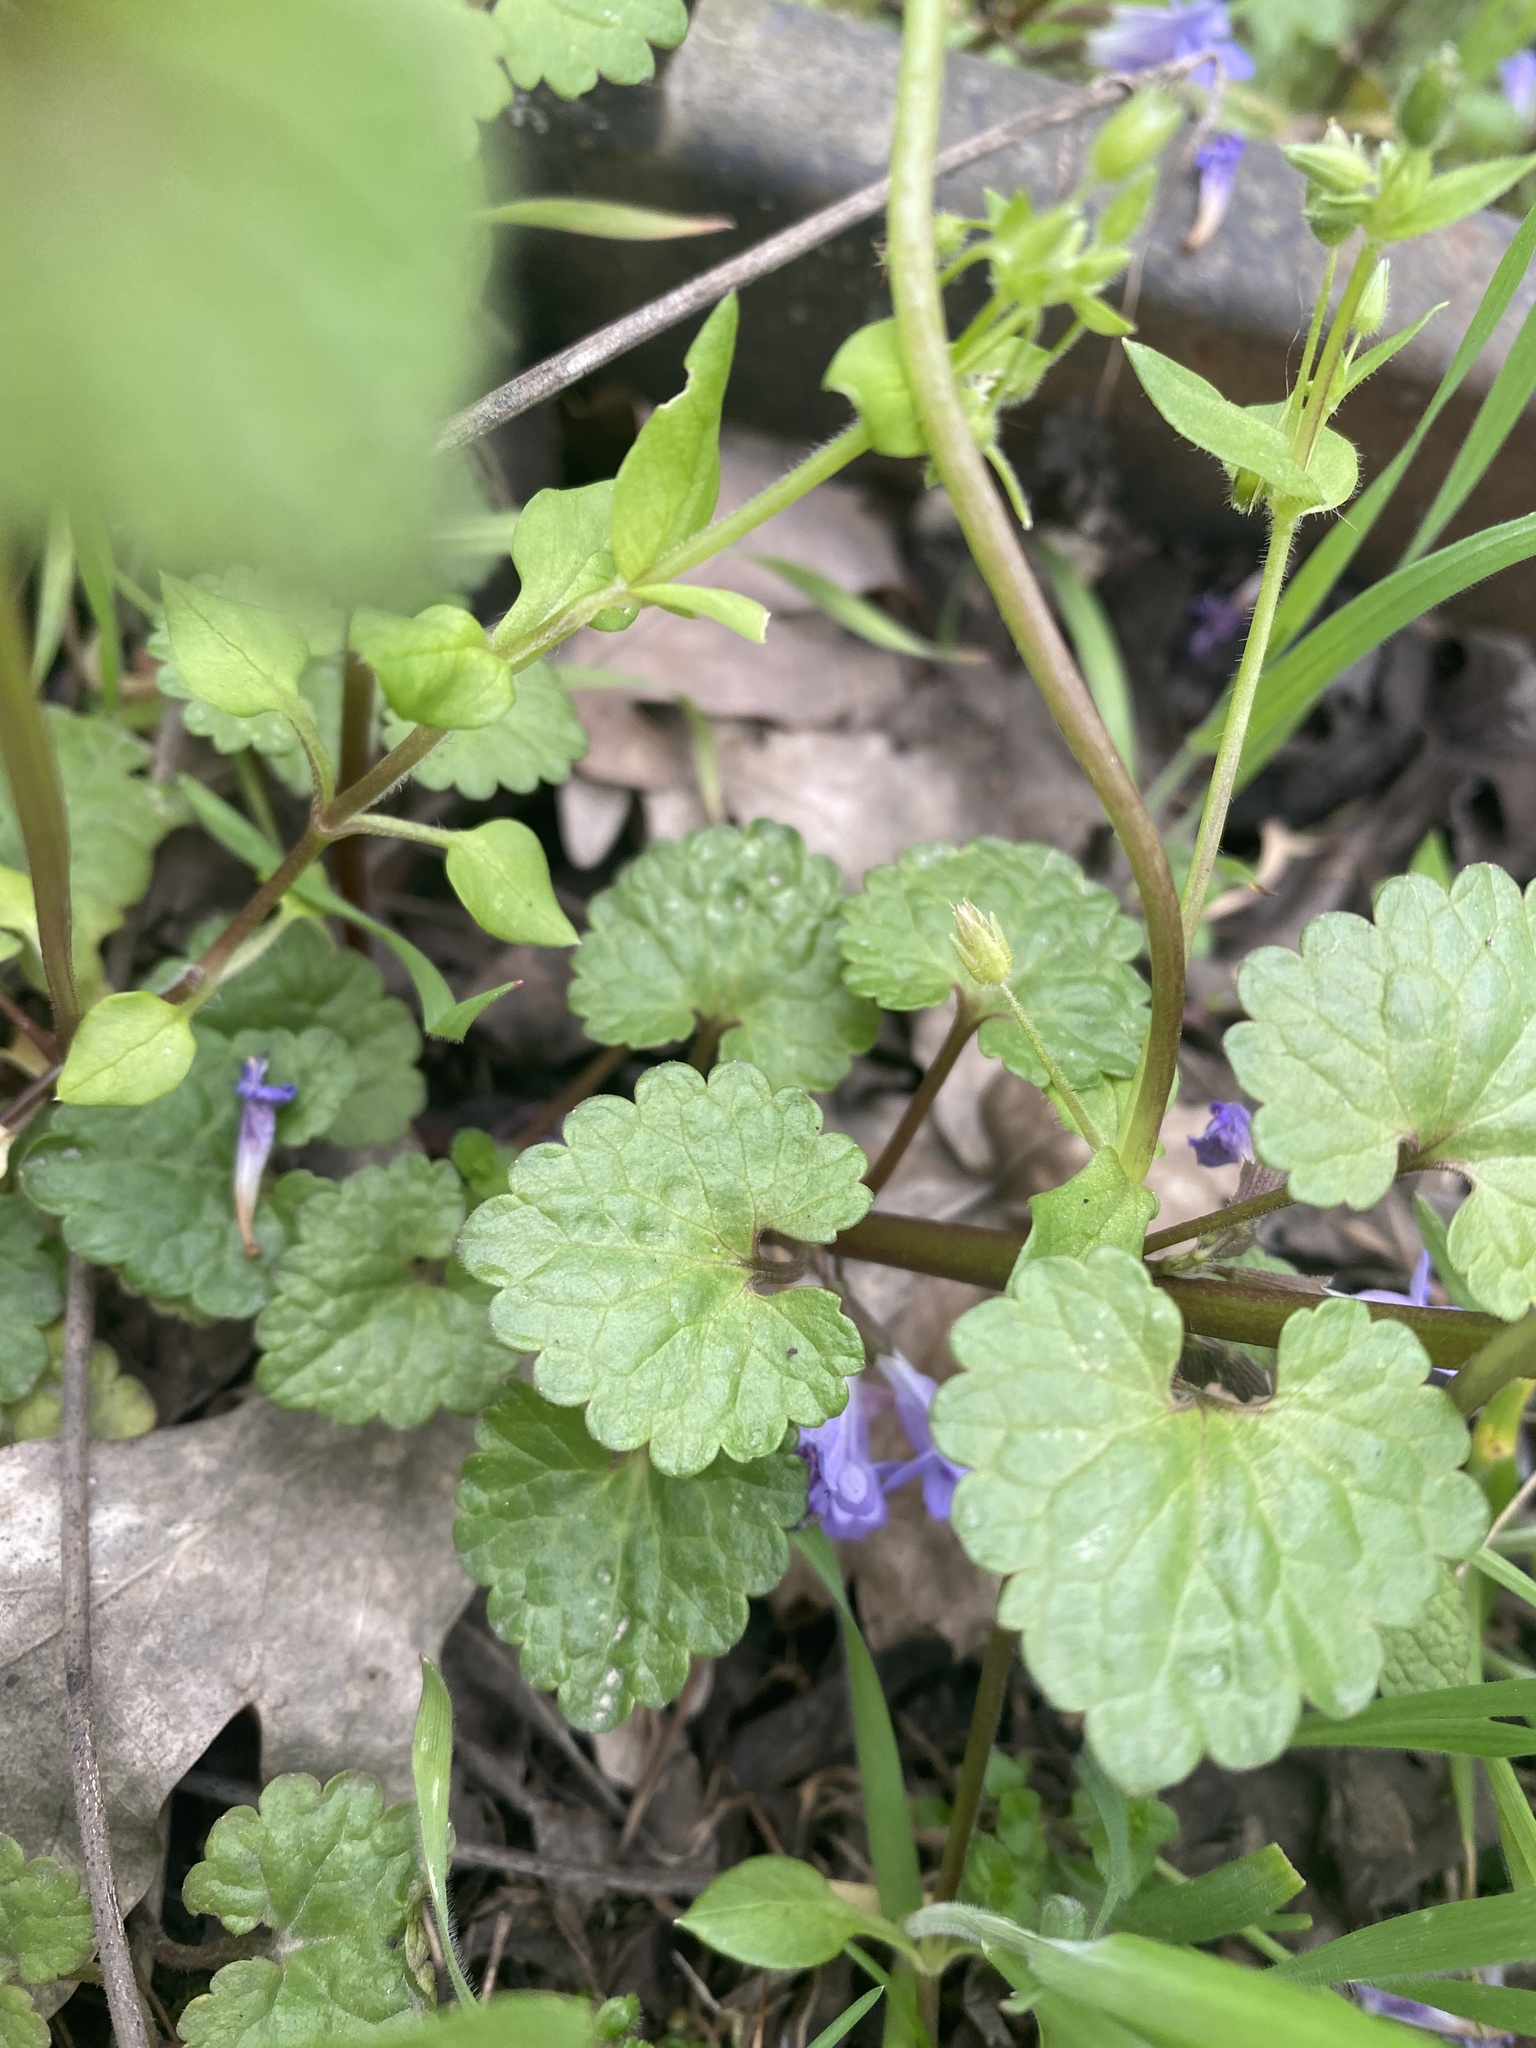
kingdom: Plantae
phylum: Tracheophyta
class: Magnoliopsida
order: Lamiales
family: Lamiaceae
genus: Glechoma
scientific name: Glechoma hederacea
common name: Ground ivy
